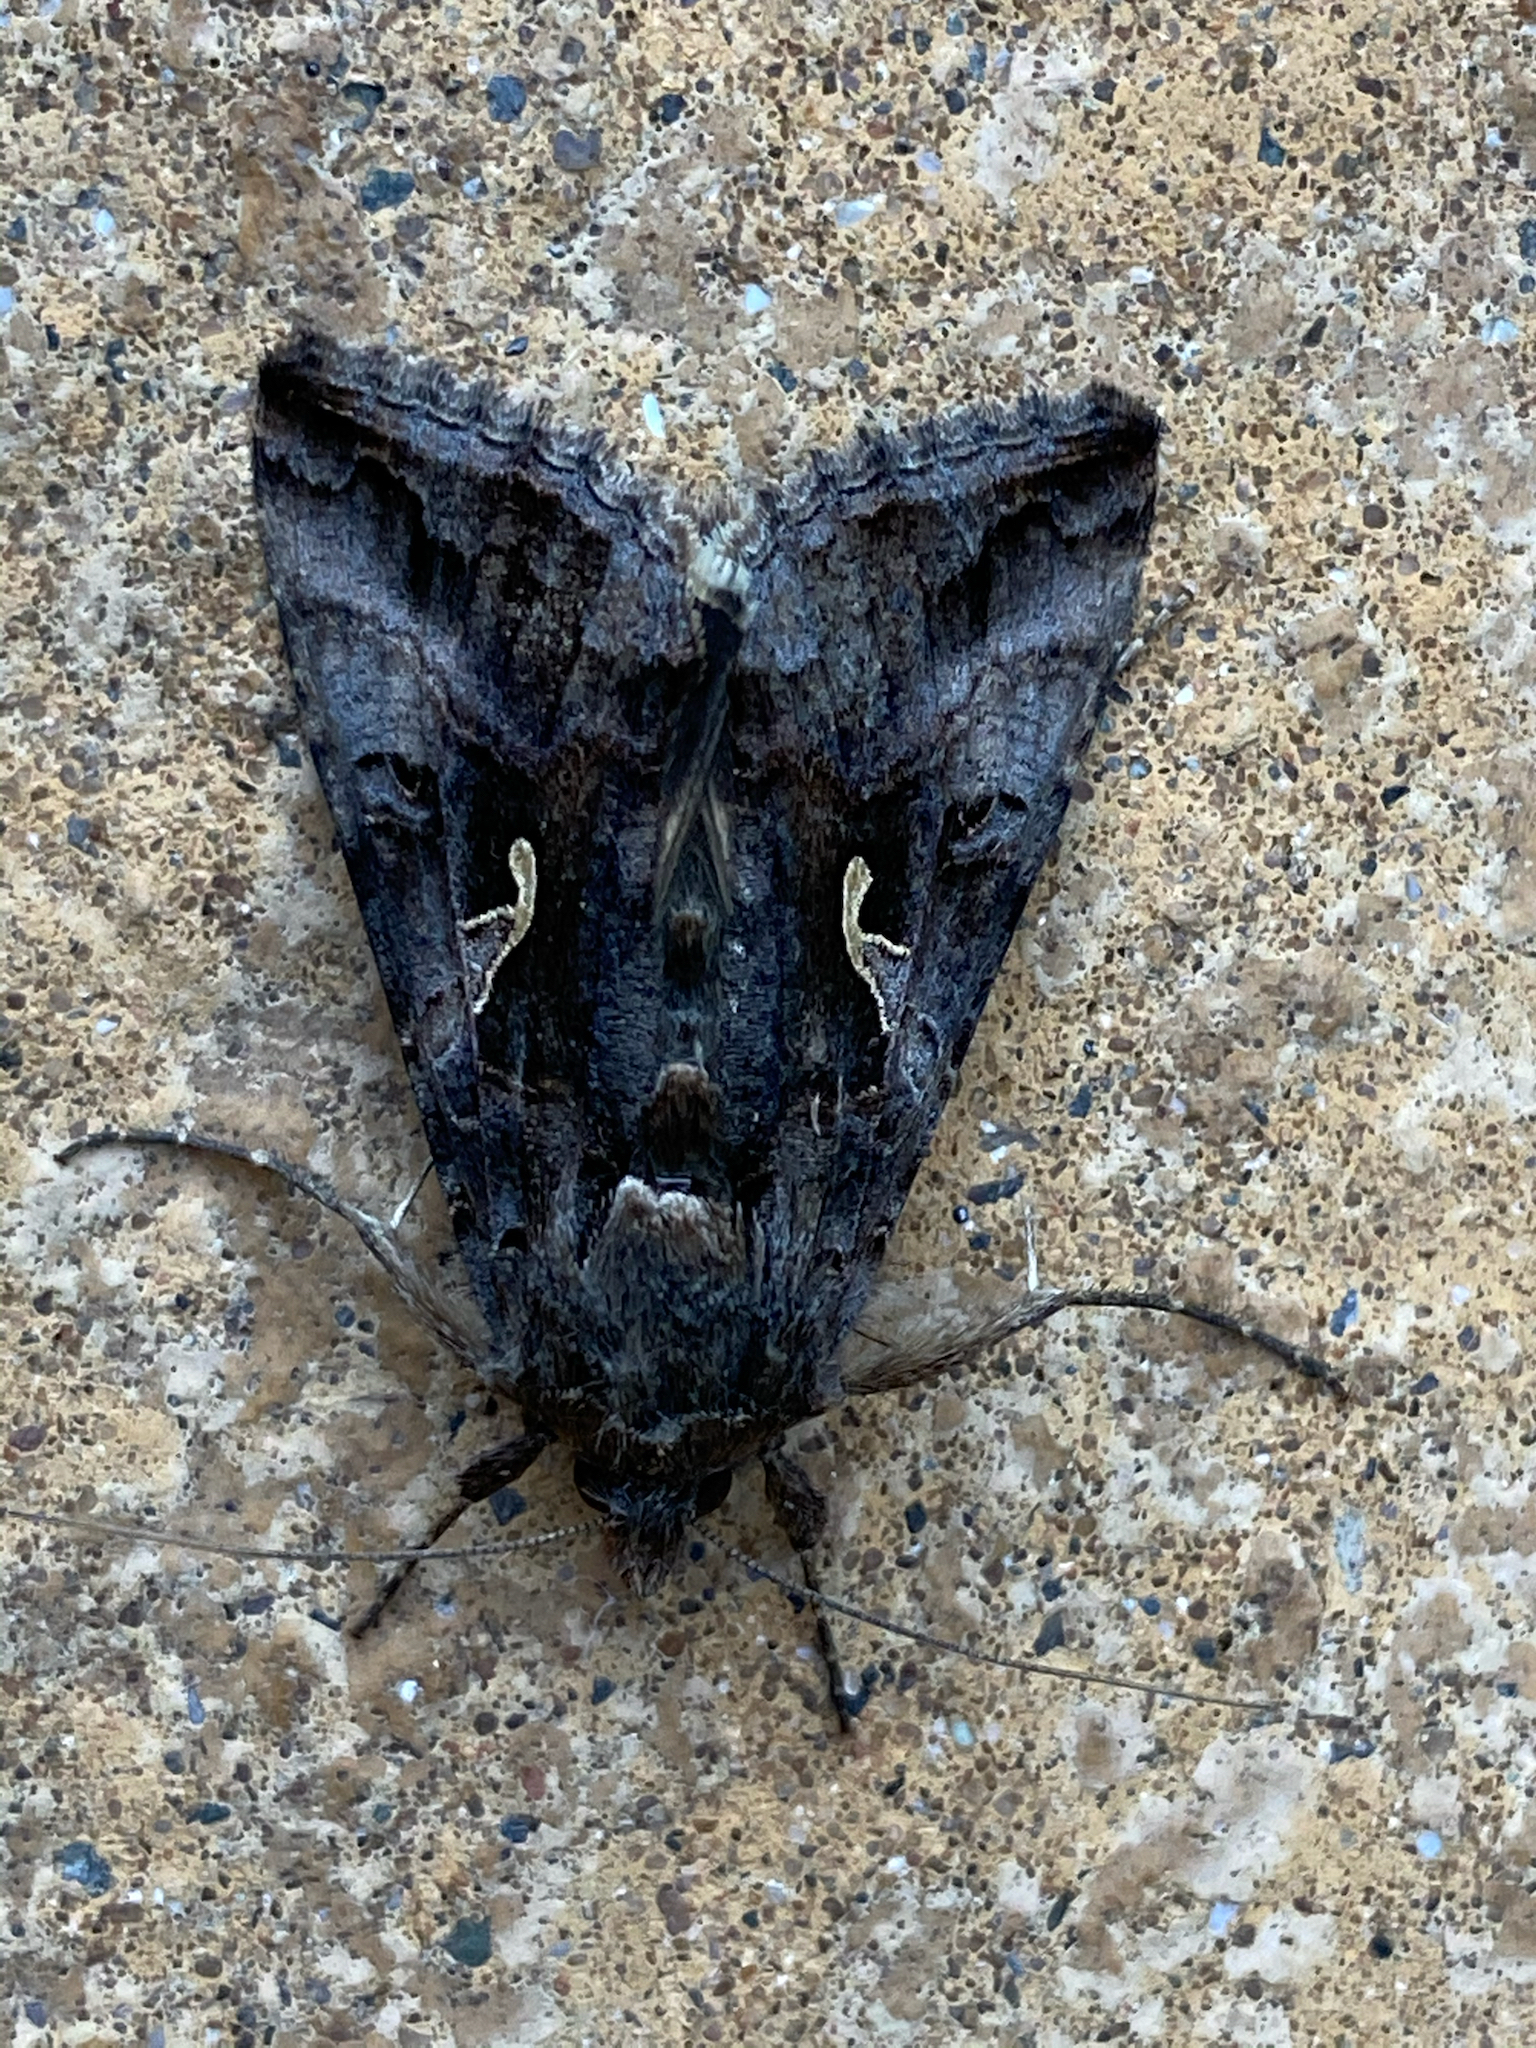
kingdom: Animalia
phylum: Arthropoda
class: Insecta
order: Lepidoptera
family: Noctuidae
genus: Autographa
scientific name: Autographa gamma
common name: Silver y
